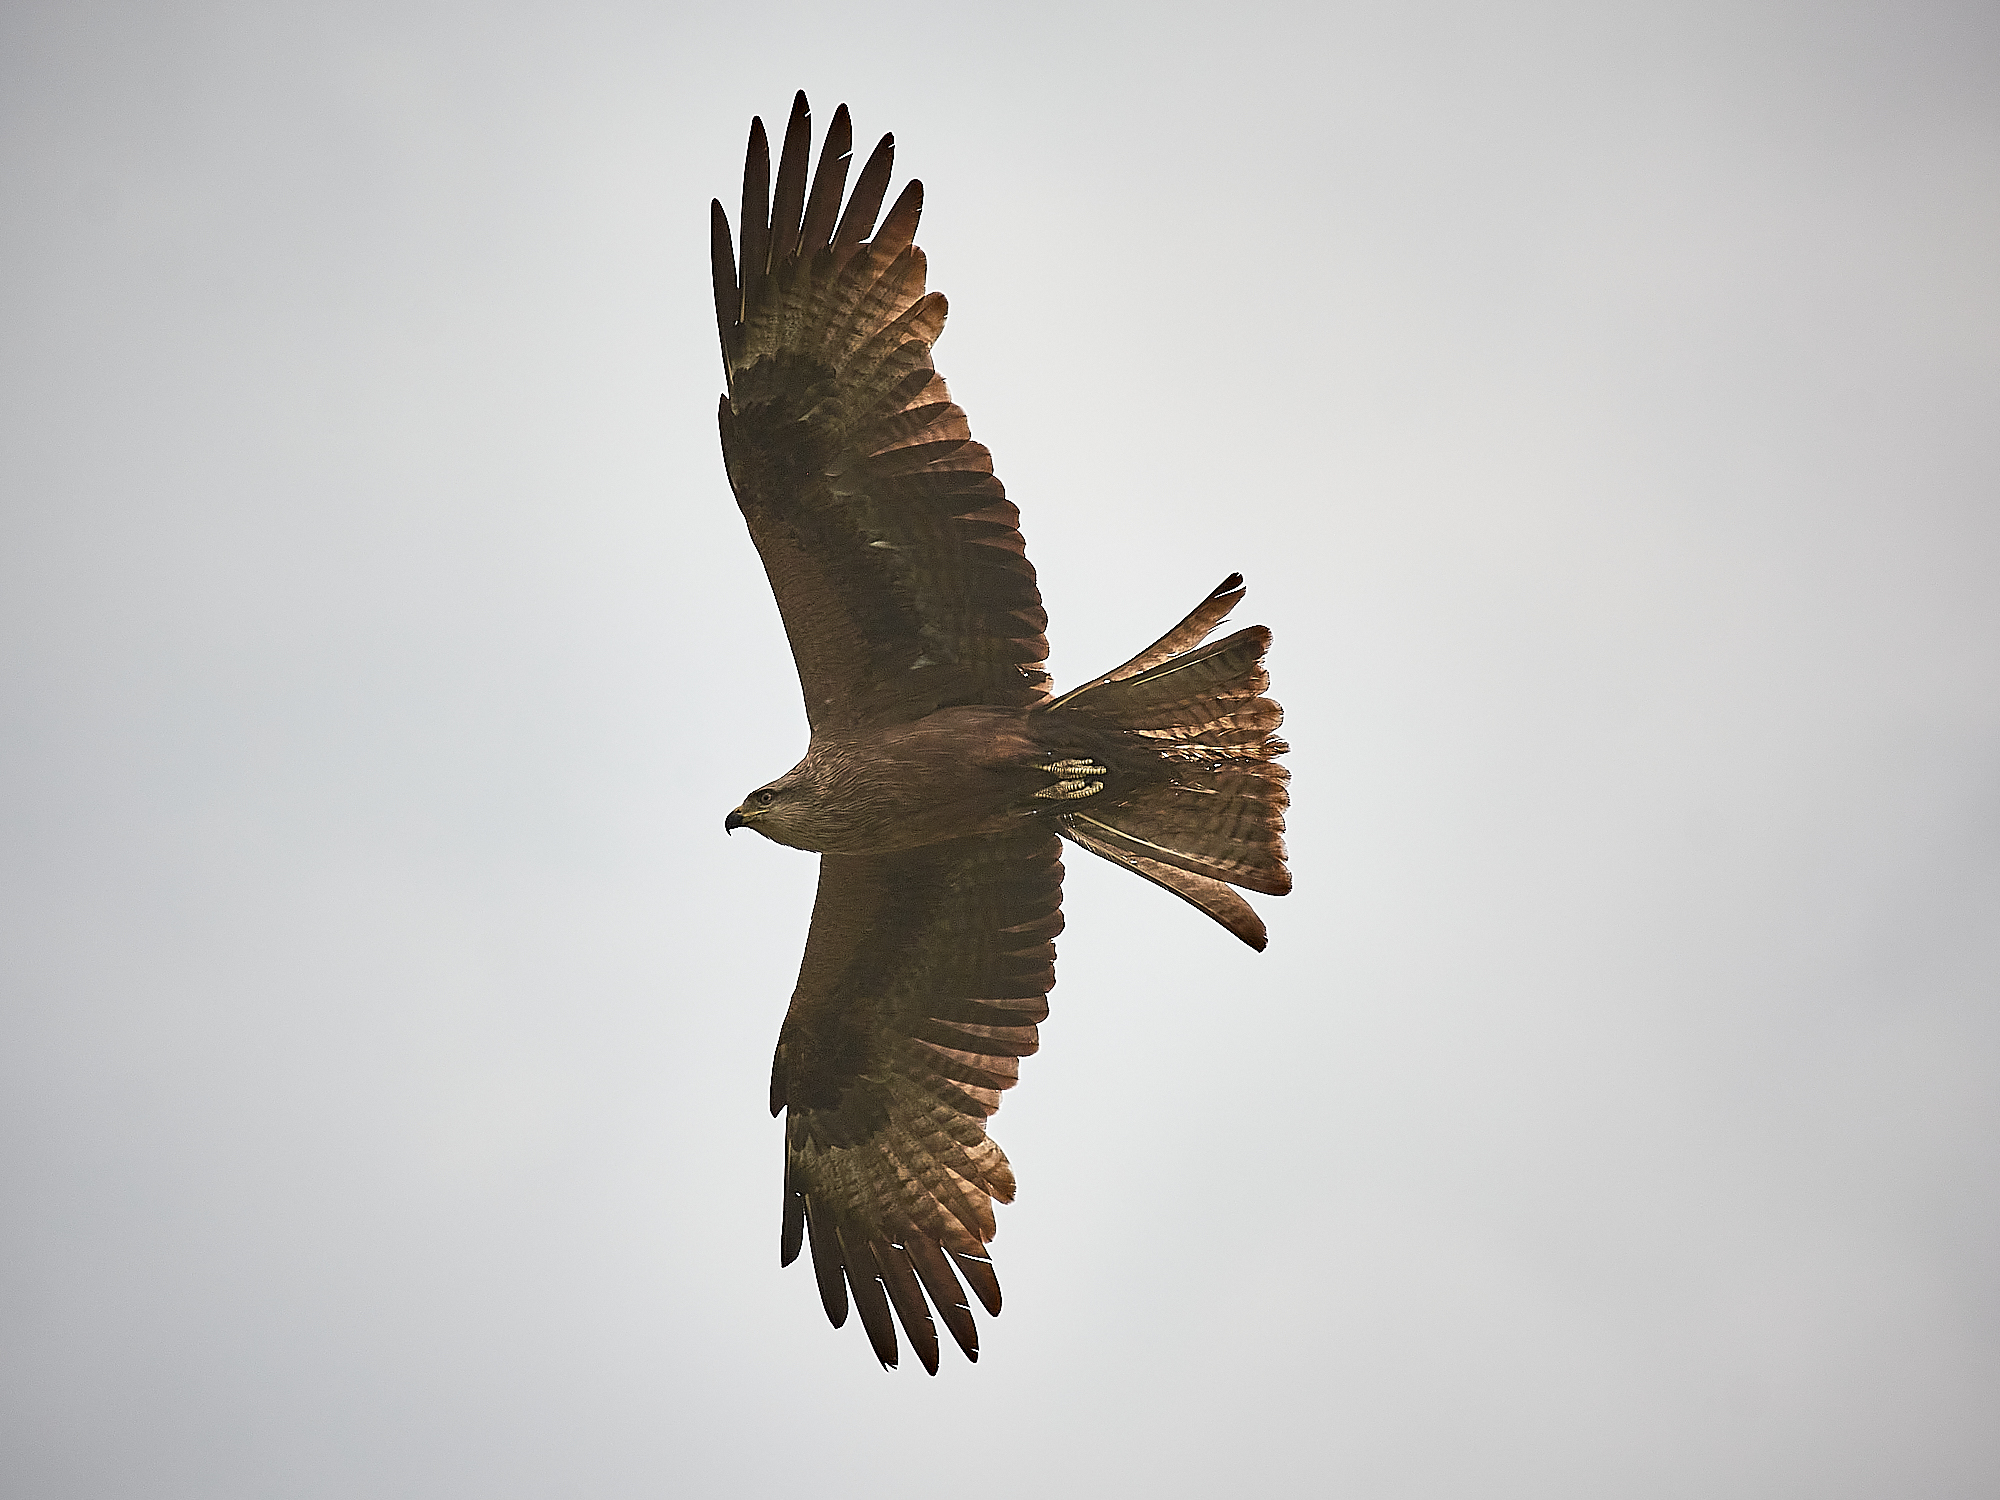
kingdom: Animalia
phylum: Chordata
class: Aves
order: Accipitriformes
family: Accipitridae
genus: Milvus
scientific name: Milvus migrans
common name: Black kite
